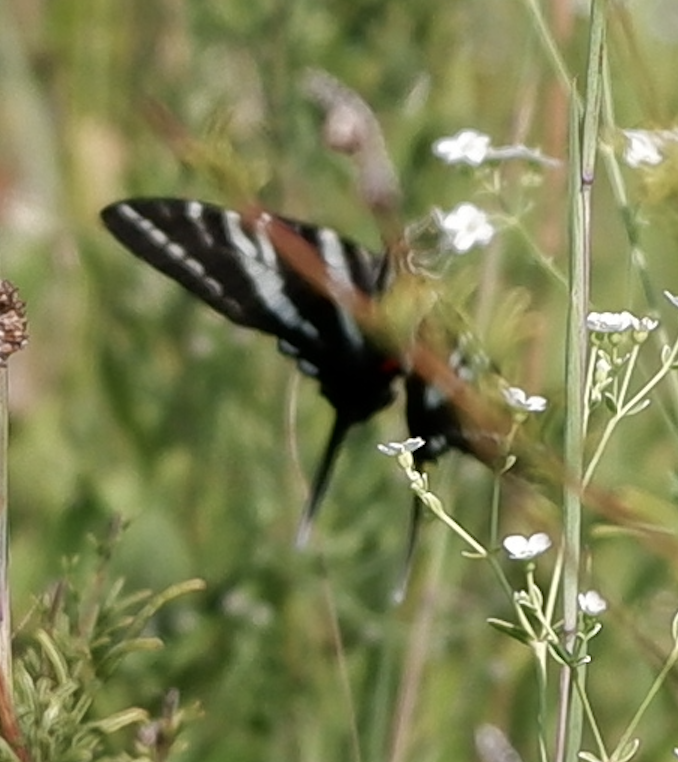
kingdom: Animalia
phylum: Arthropoda
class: Insecta
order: Lepidoptera
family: Papilionidae
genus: Protographium
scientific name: Protographium marcellus
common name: Zebra swallowtail
